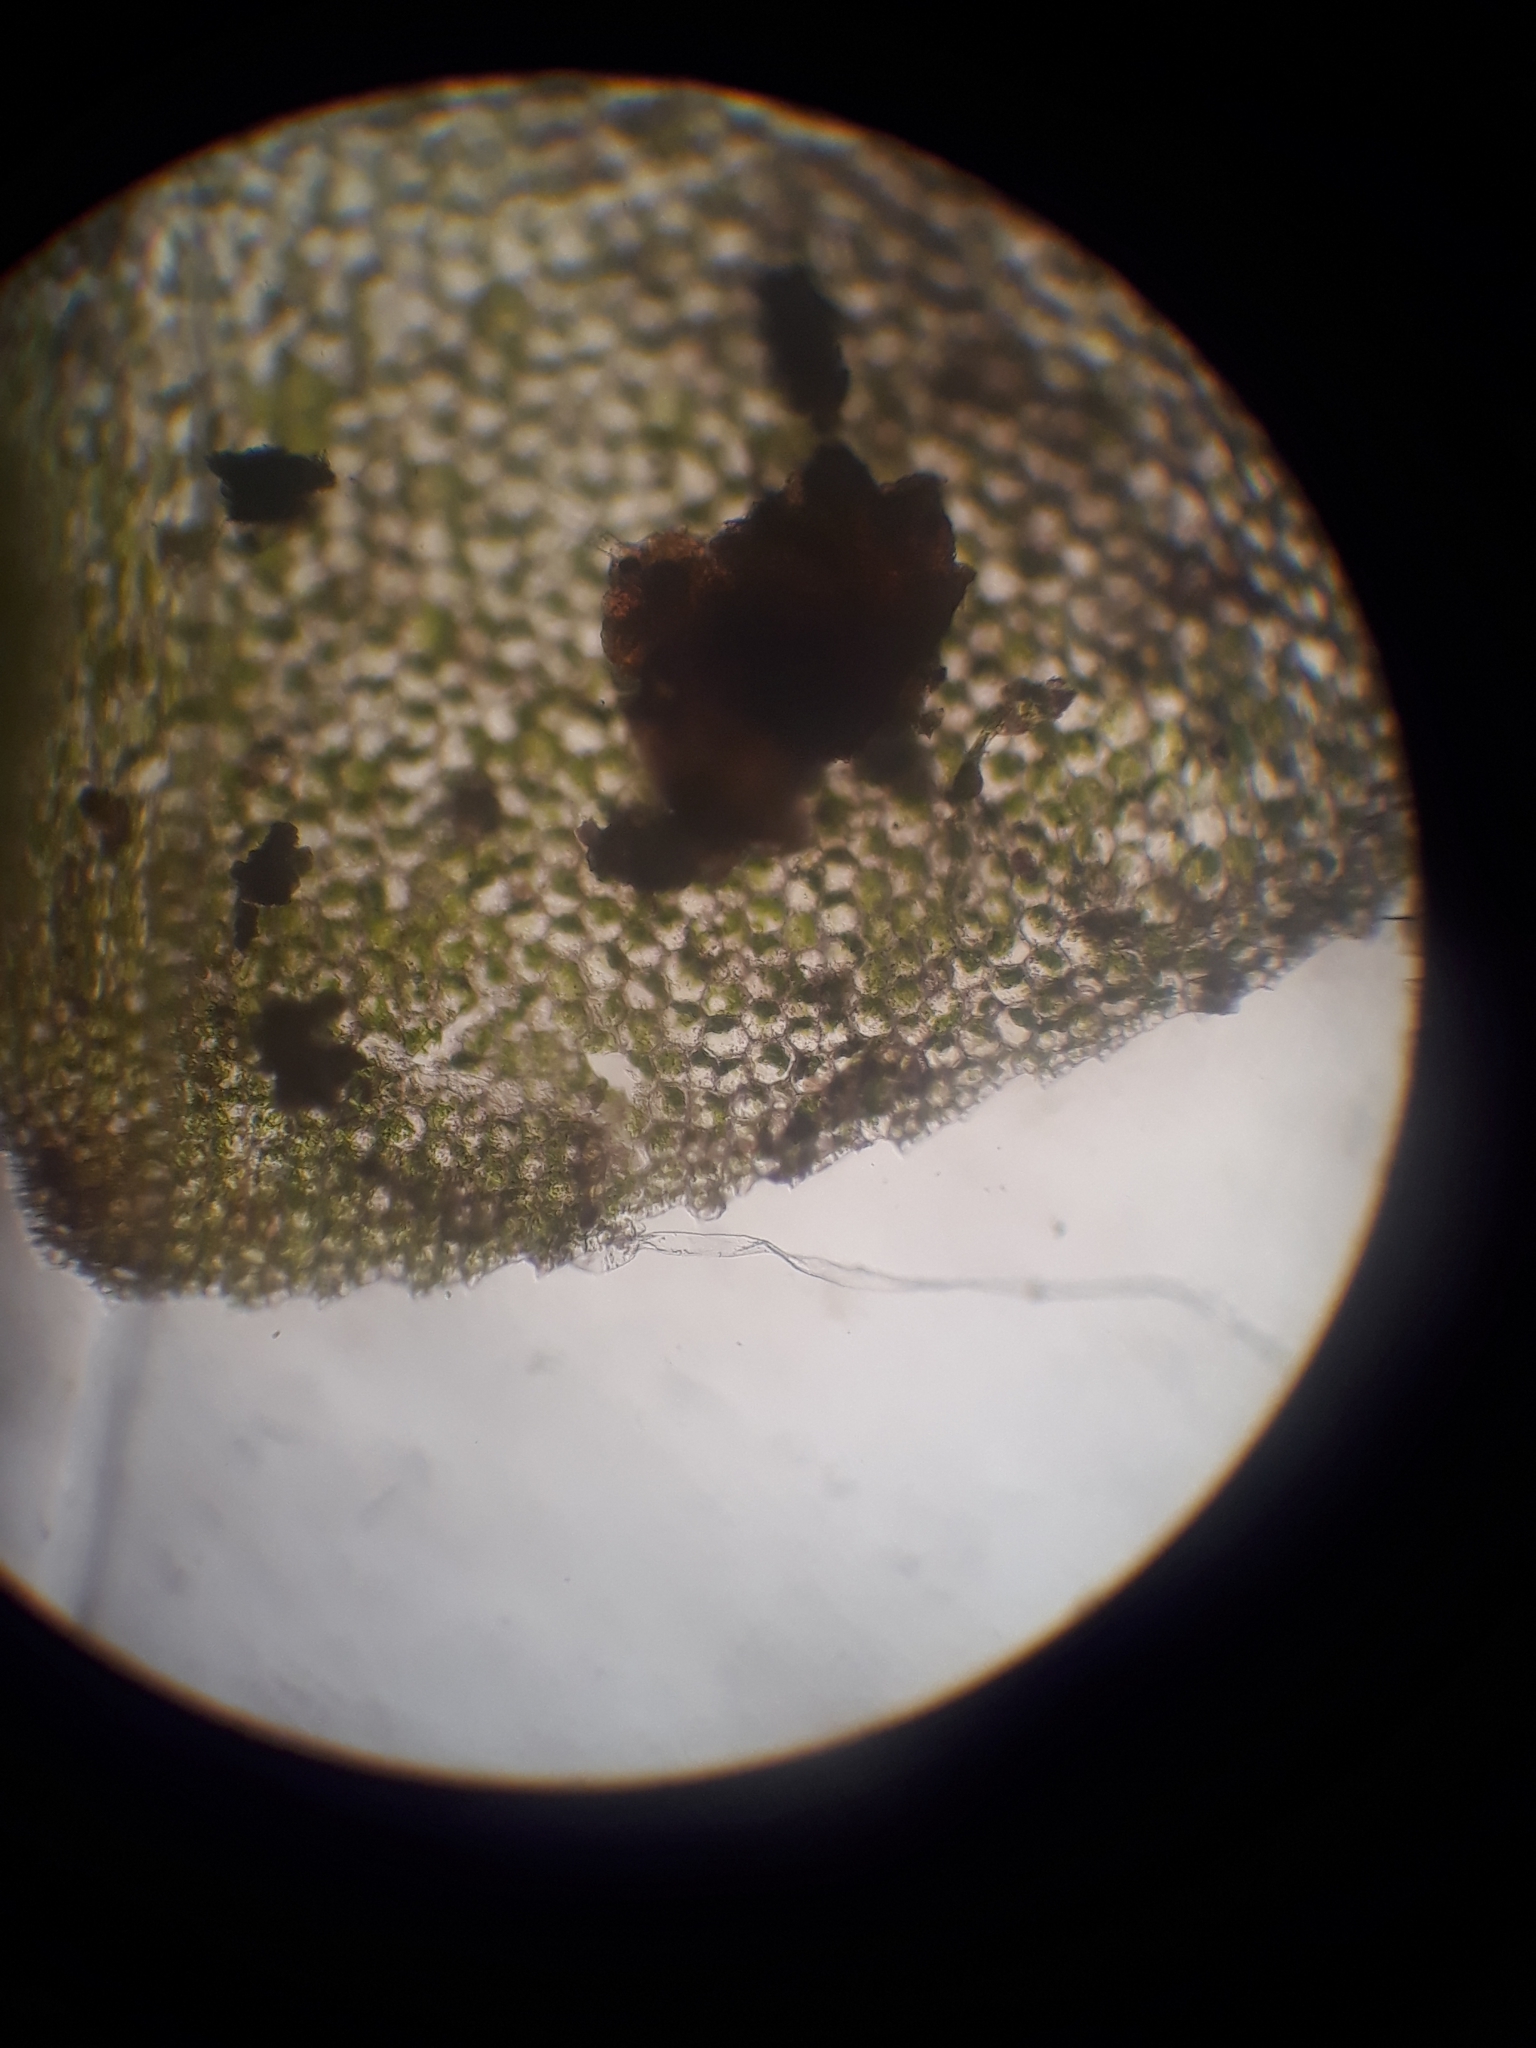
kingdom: Plantae
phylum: Bryophyta
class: Bryopsida
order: Hookeriales
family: Daltoniaceae
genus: Achrophyllum
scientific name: Achrophyllum dentatum
